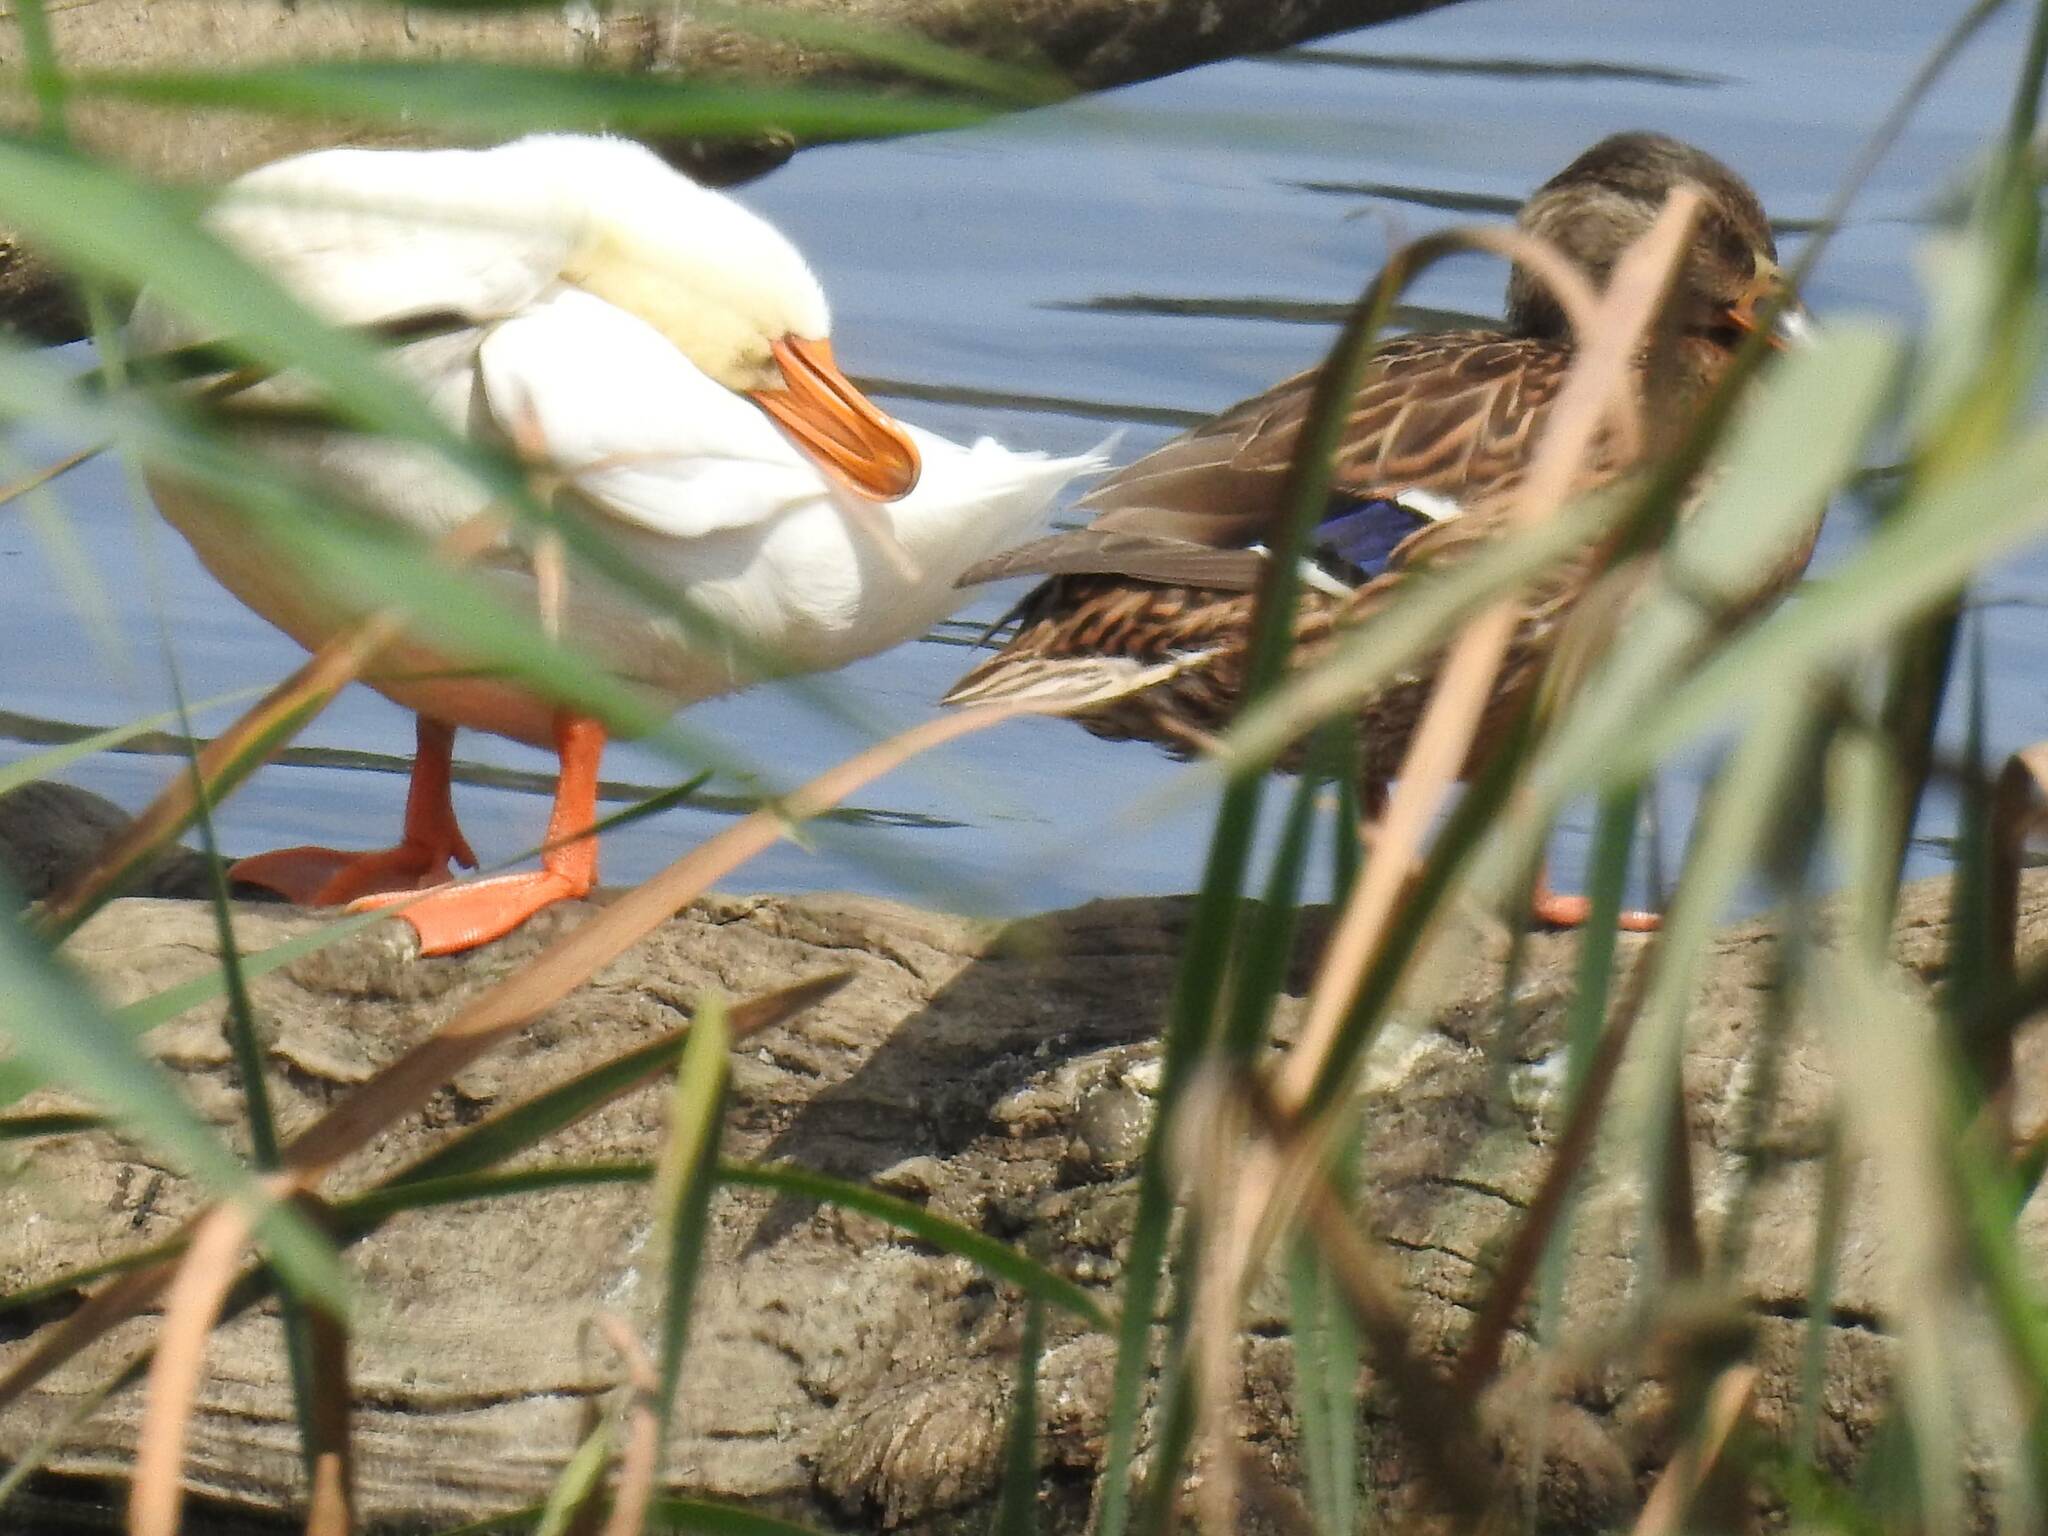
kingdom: Animalia
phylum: Chordata
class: Aves
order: Anseriformes
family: Anatidae
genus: Anas
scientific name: Anas platyrhynchos
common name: Mallard
